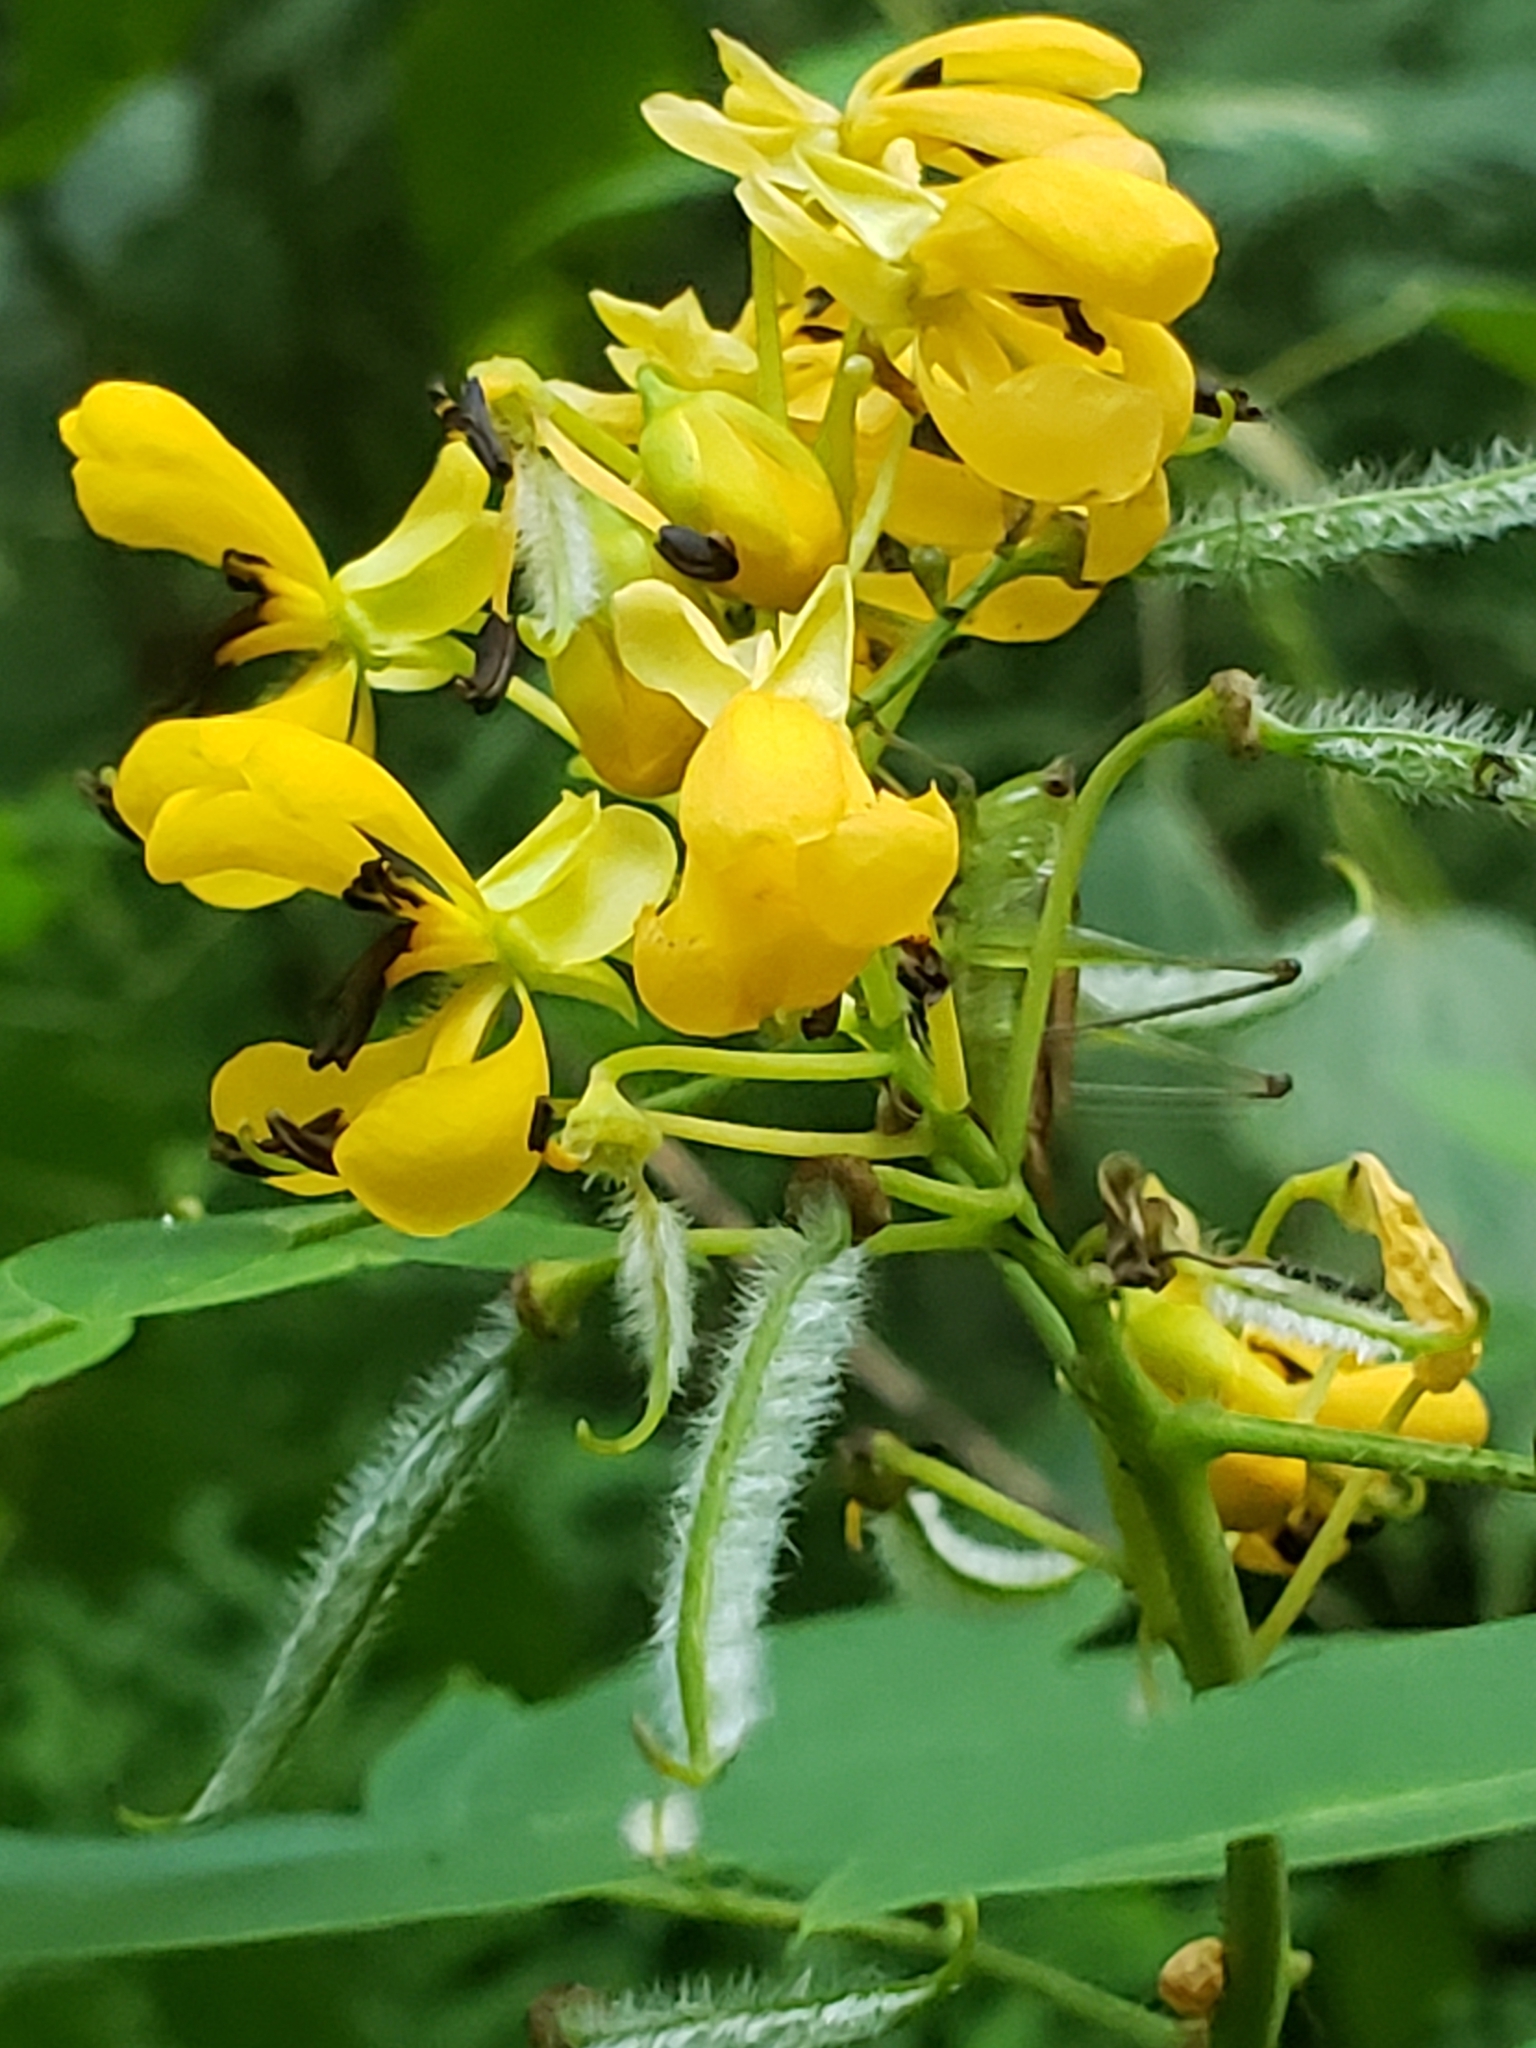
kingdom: Plantae
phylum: Tracheophyta
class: Magnoliopsida
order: Fabales
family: Fabaceae
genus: Senna
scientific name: Senna hebecarpa
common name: Wild senna
